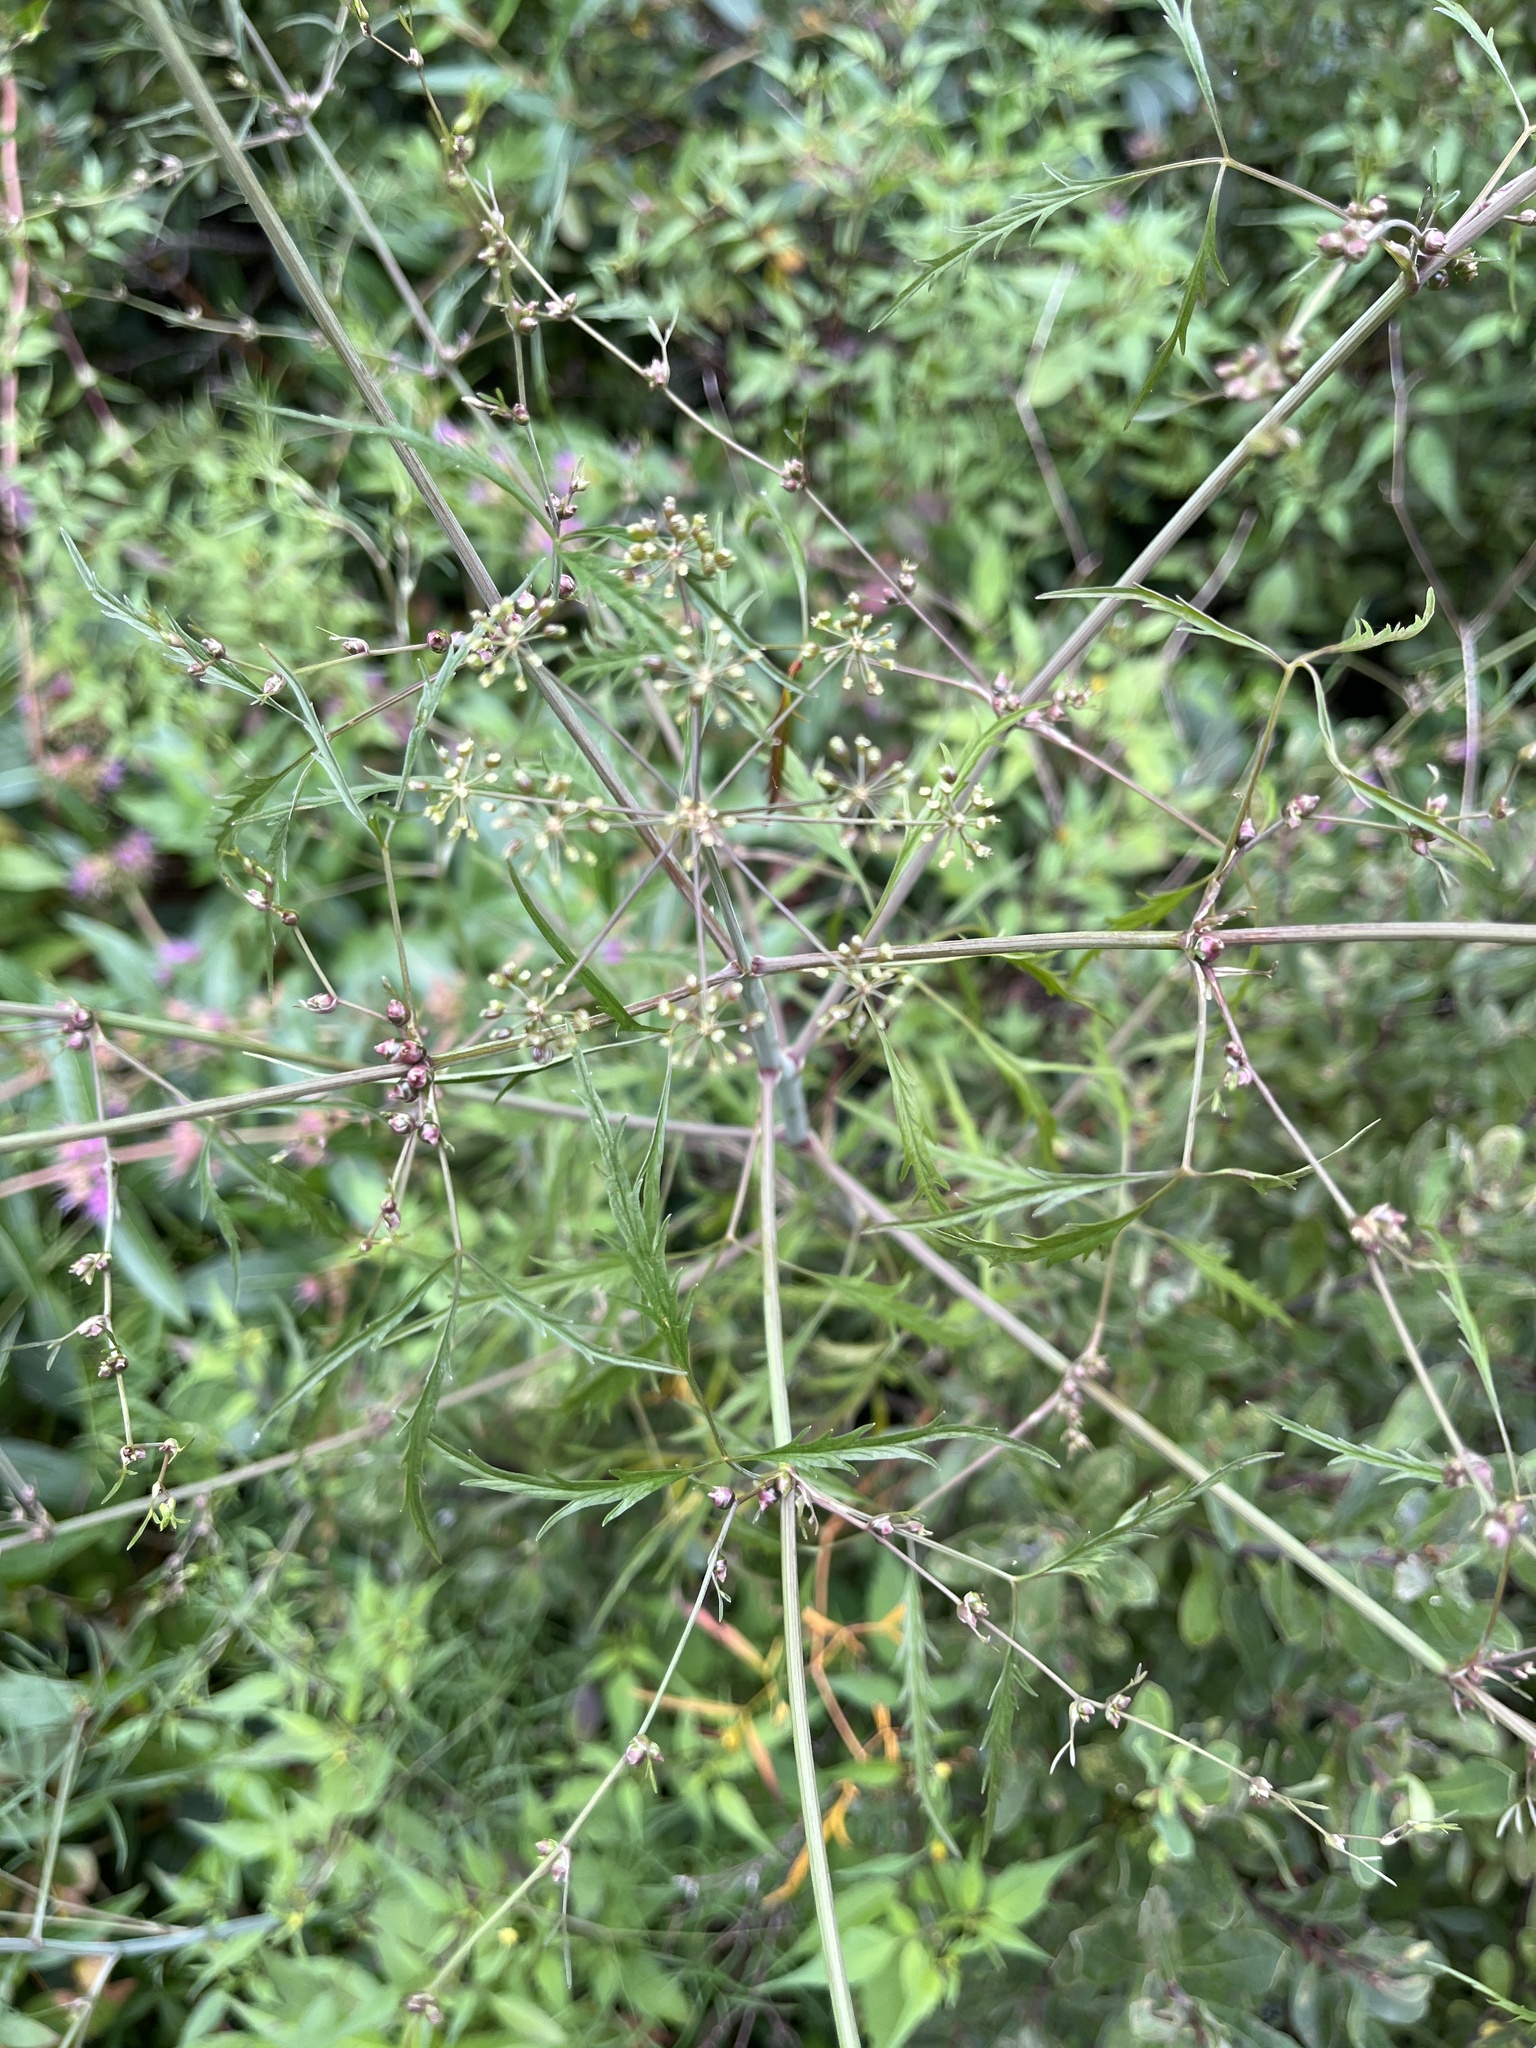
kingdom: Plantae
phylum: Tracheophyta
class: Magnoliopsida
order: Apiales
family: Apiaceae
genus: Cicuta
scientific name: Cicuta bulbifera
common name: Bulb-bearing water-hemlock
